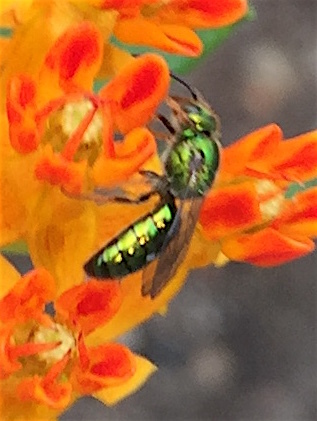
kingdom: Animalia
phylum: Arthropoda
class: Insecta
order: Hymenoptera
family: Halictidae
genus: Augochlora
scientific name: Augochlora pura
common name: Pure green sweat bee
